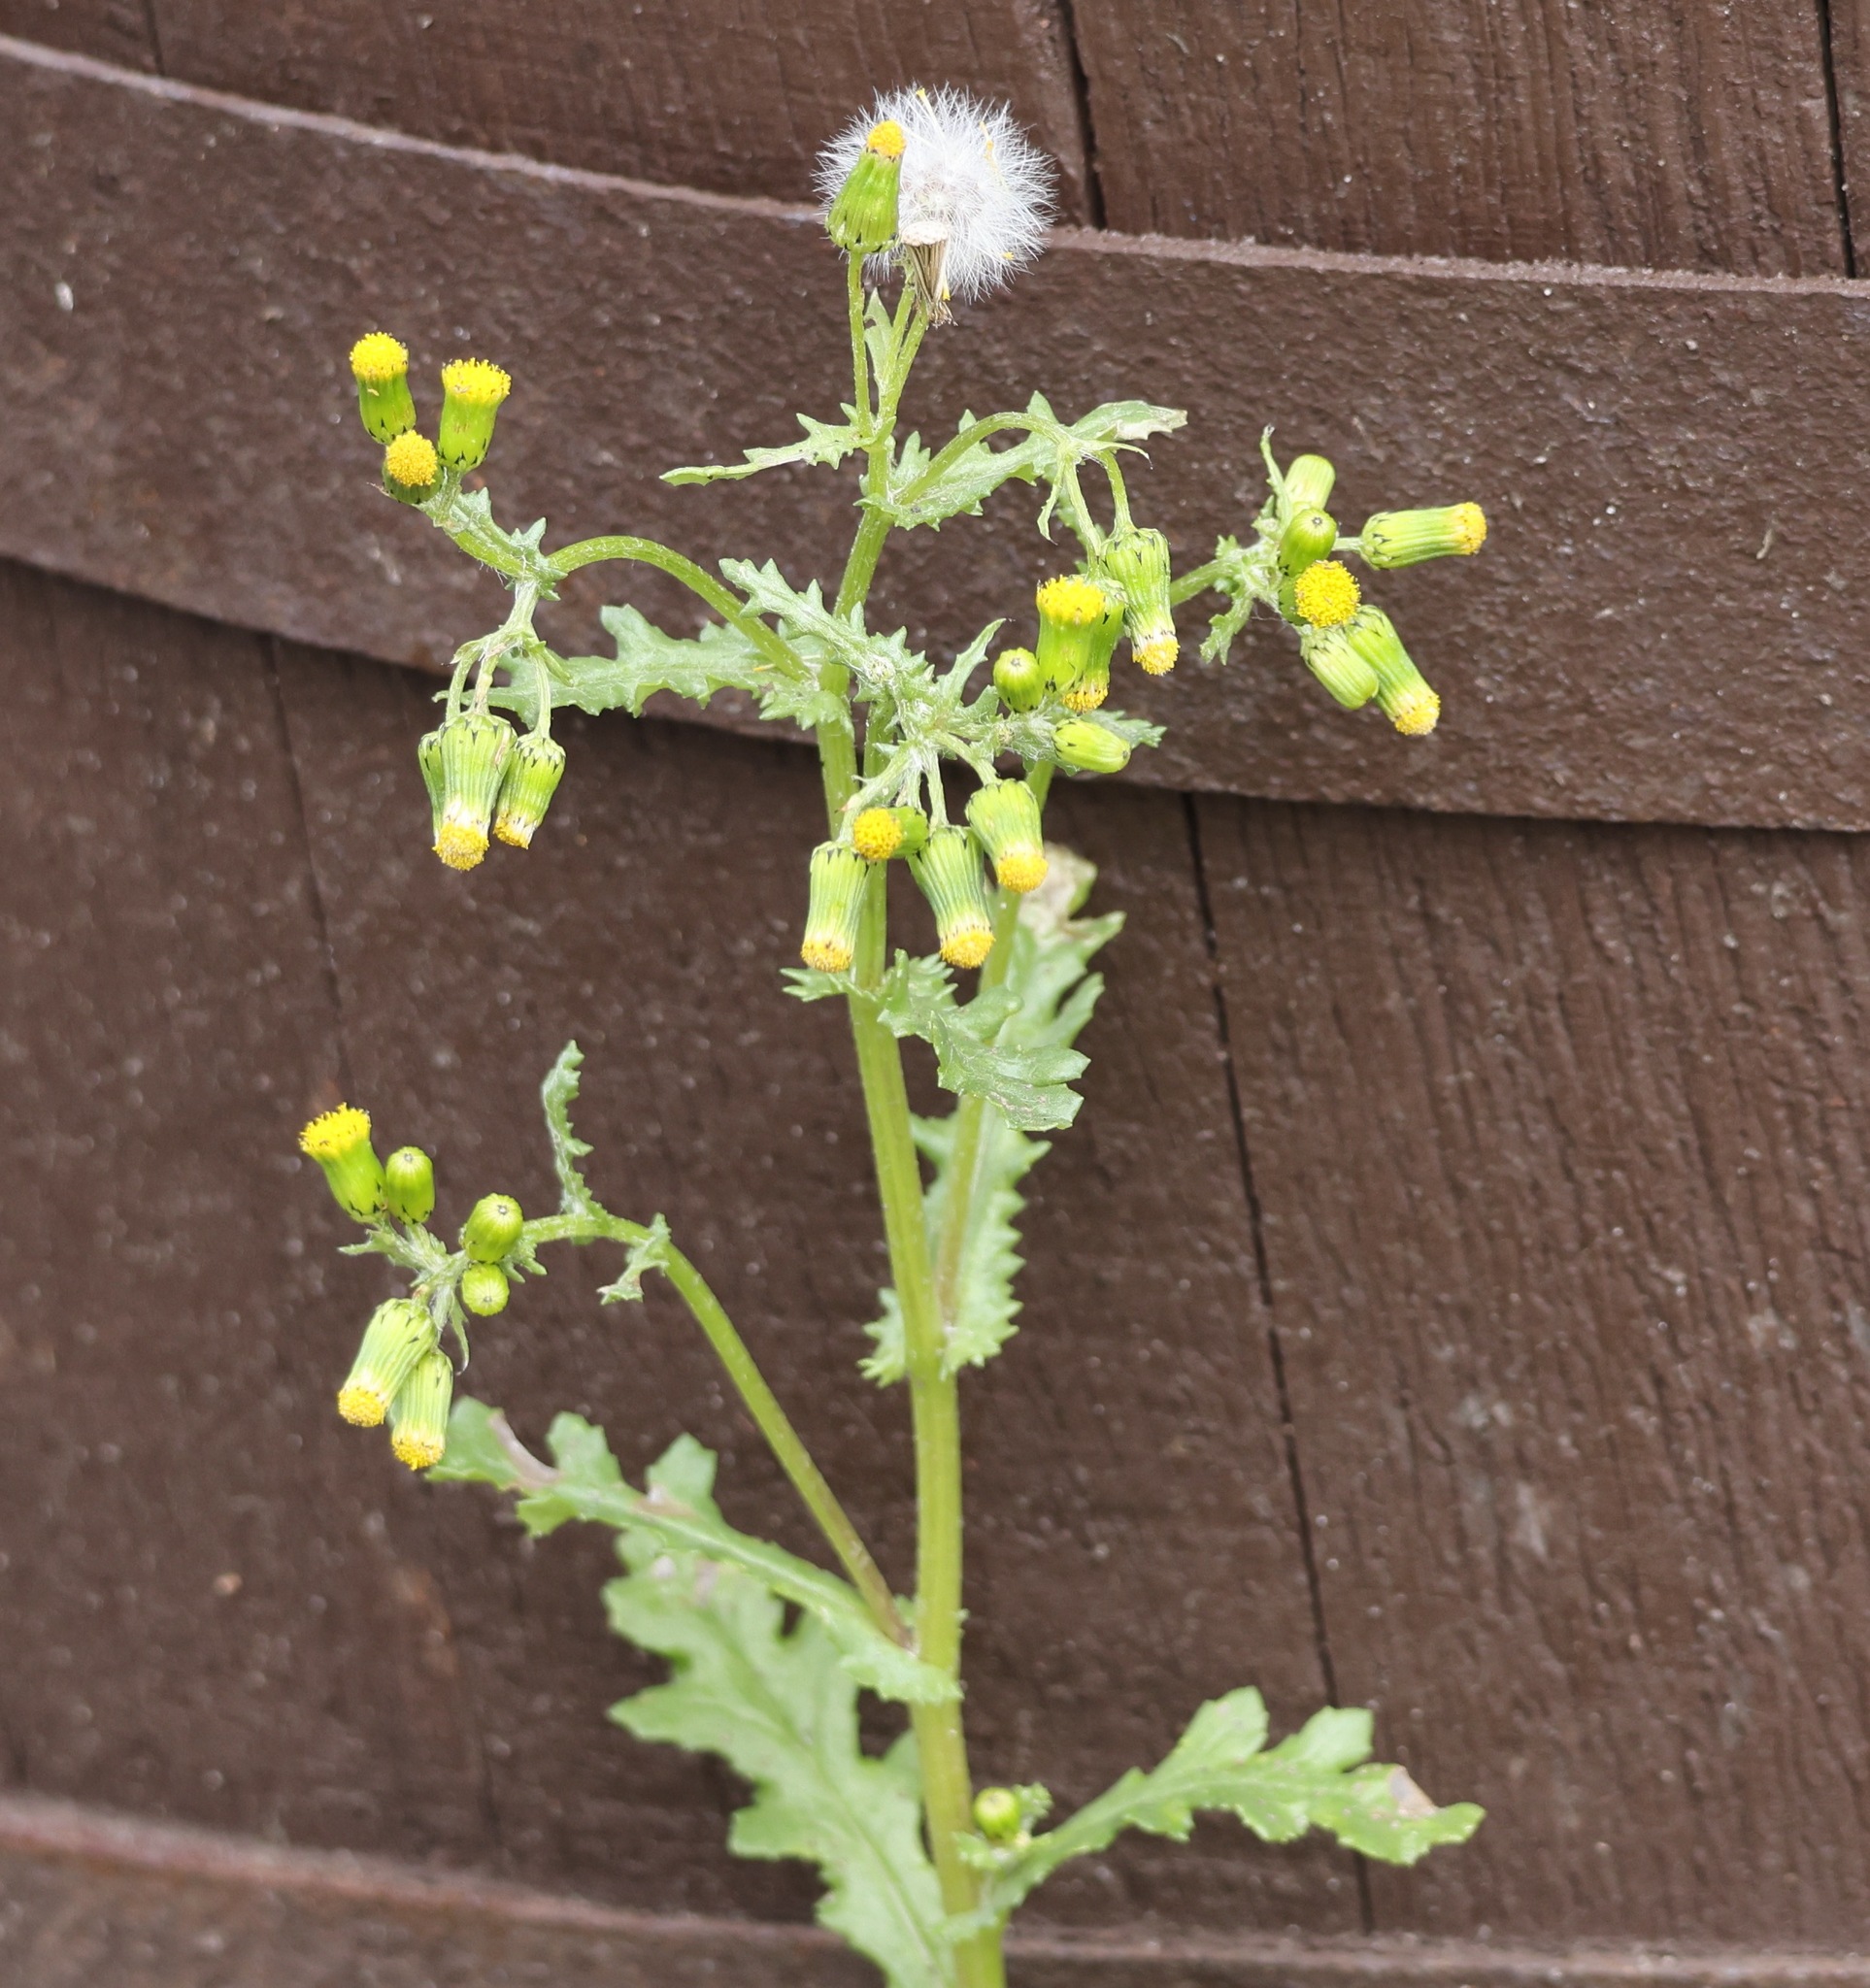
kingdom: Plantae
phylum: Tracheophyta
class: Magnoliopsida
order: Asterales
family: Asteraceae
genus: Senecio
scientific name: Senecio vulgaris
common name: Old-man-in-the-spring
